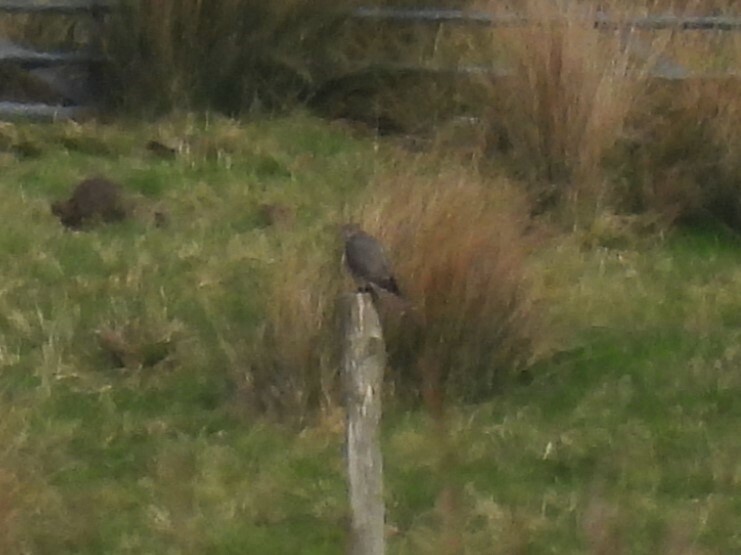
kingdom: Animalia
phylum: Chordata
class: Aves
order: Falconiformes
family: Falconidae
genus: Falco
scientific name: Falco columbarius
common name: Merlin
